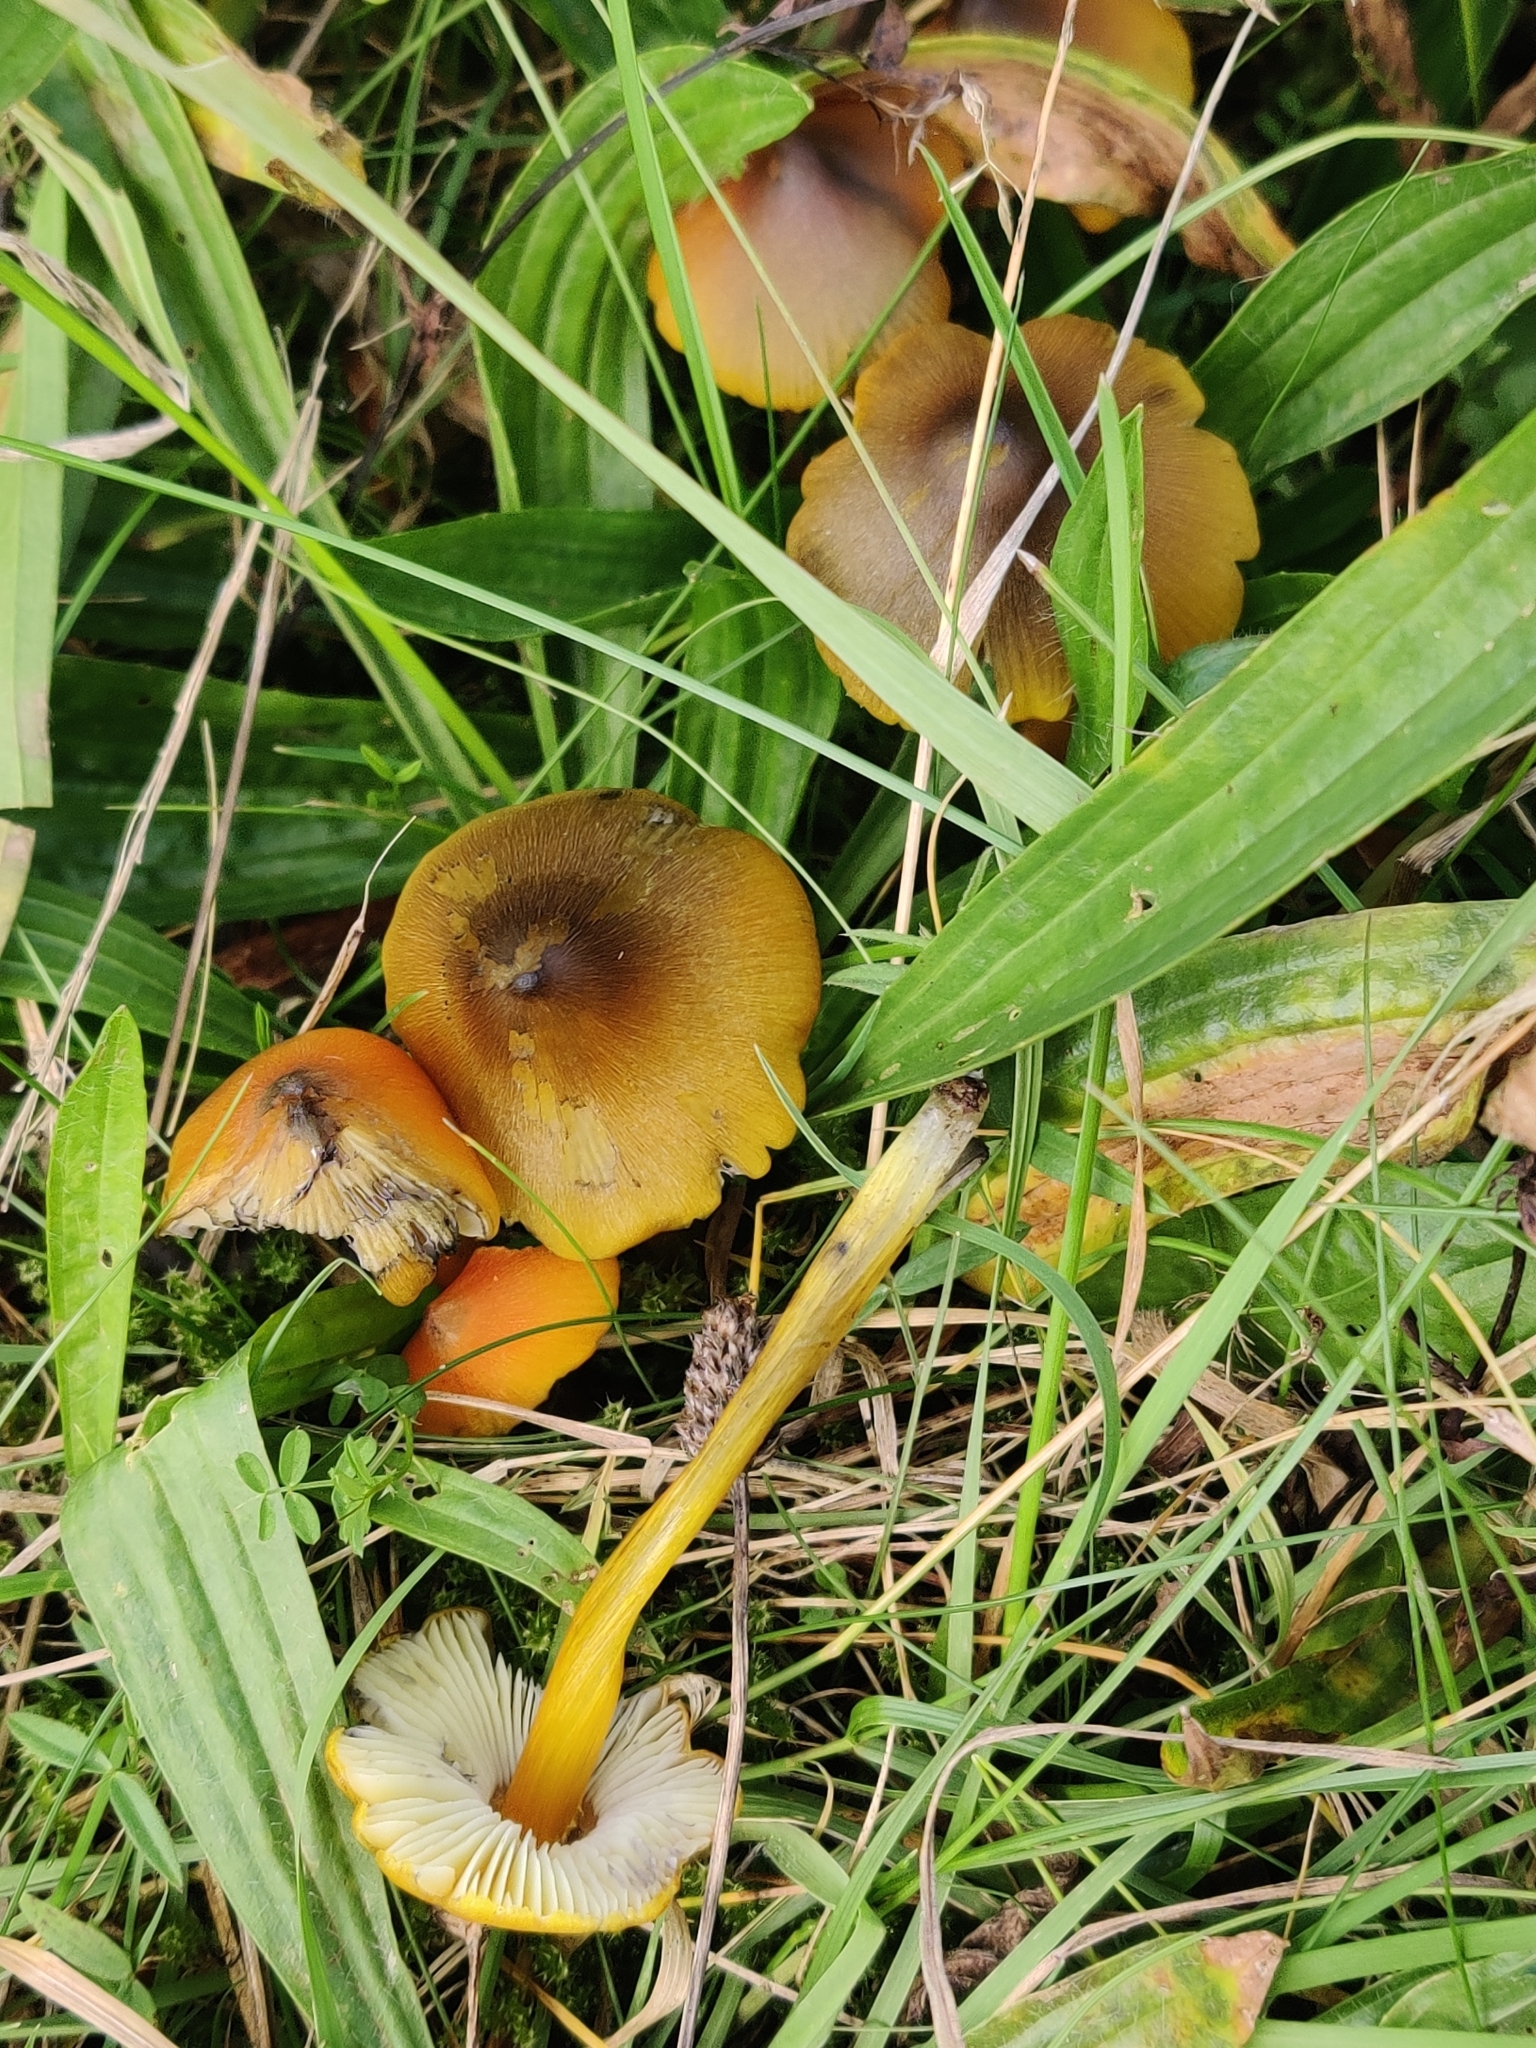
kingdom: Fungi
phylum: Basidiomycota
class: Agaricomycetes
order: Agaricales
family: Hygrophoraceae
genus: Hygrocybe
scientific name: Hygrocybe conica
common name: Blackening wax-cap
